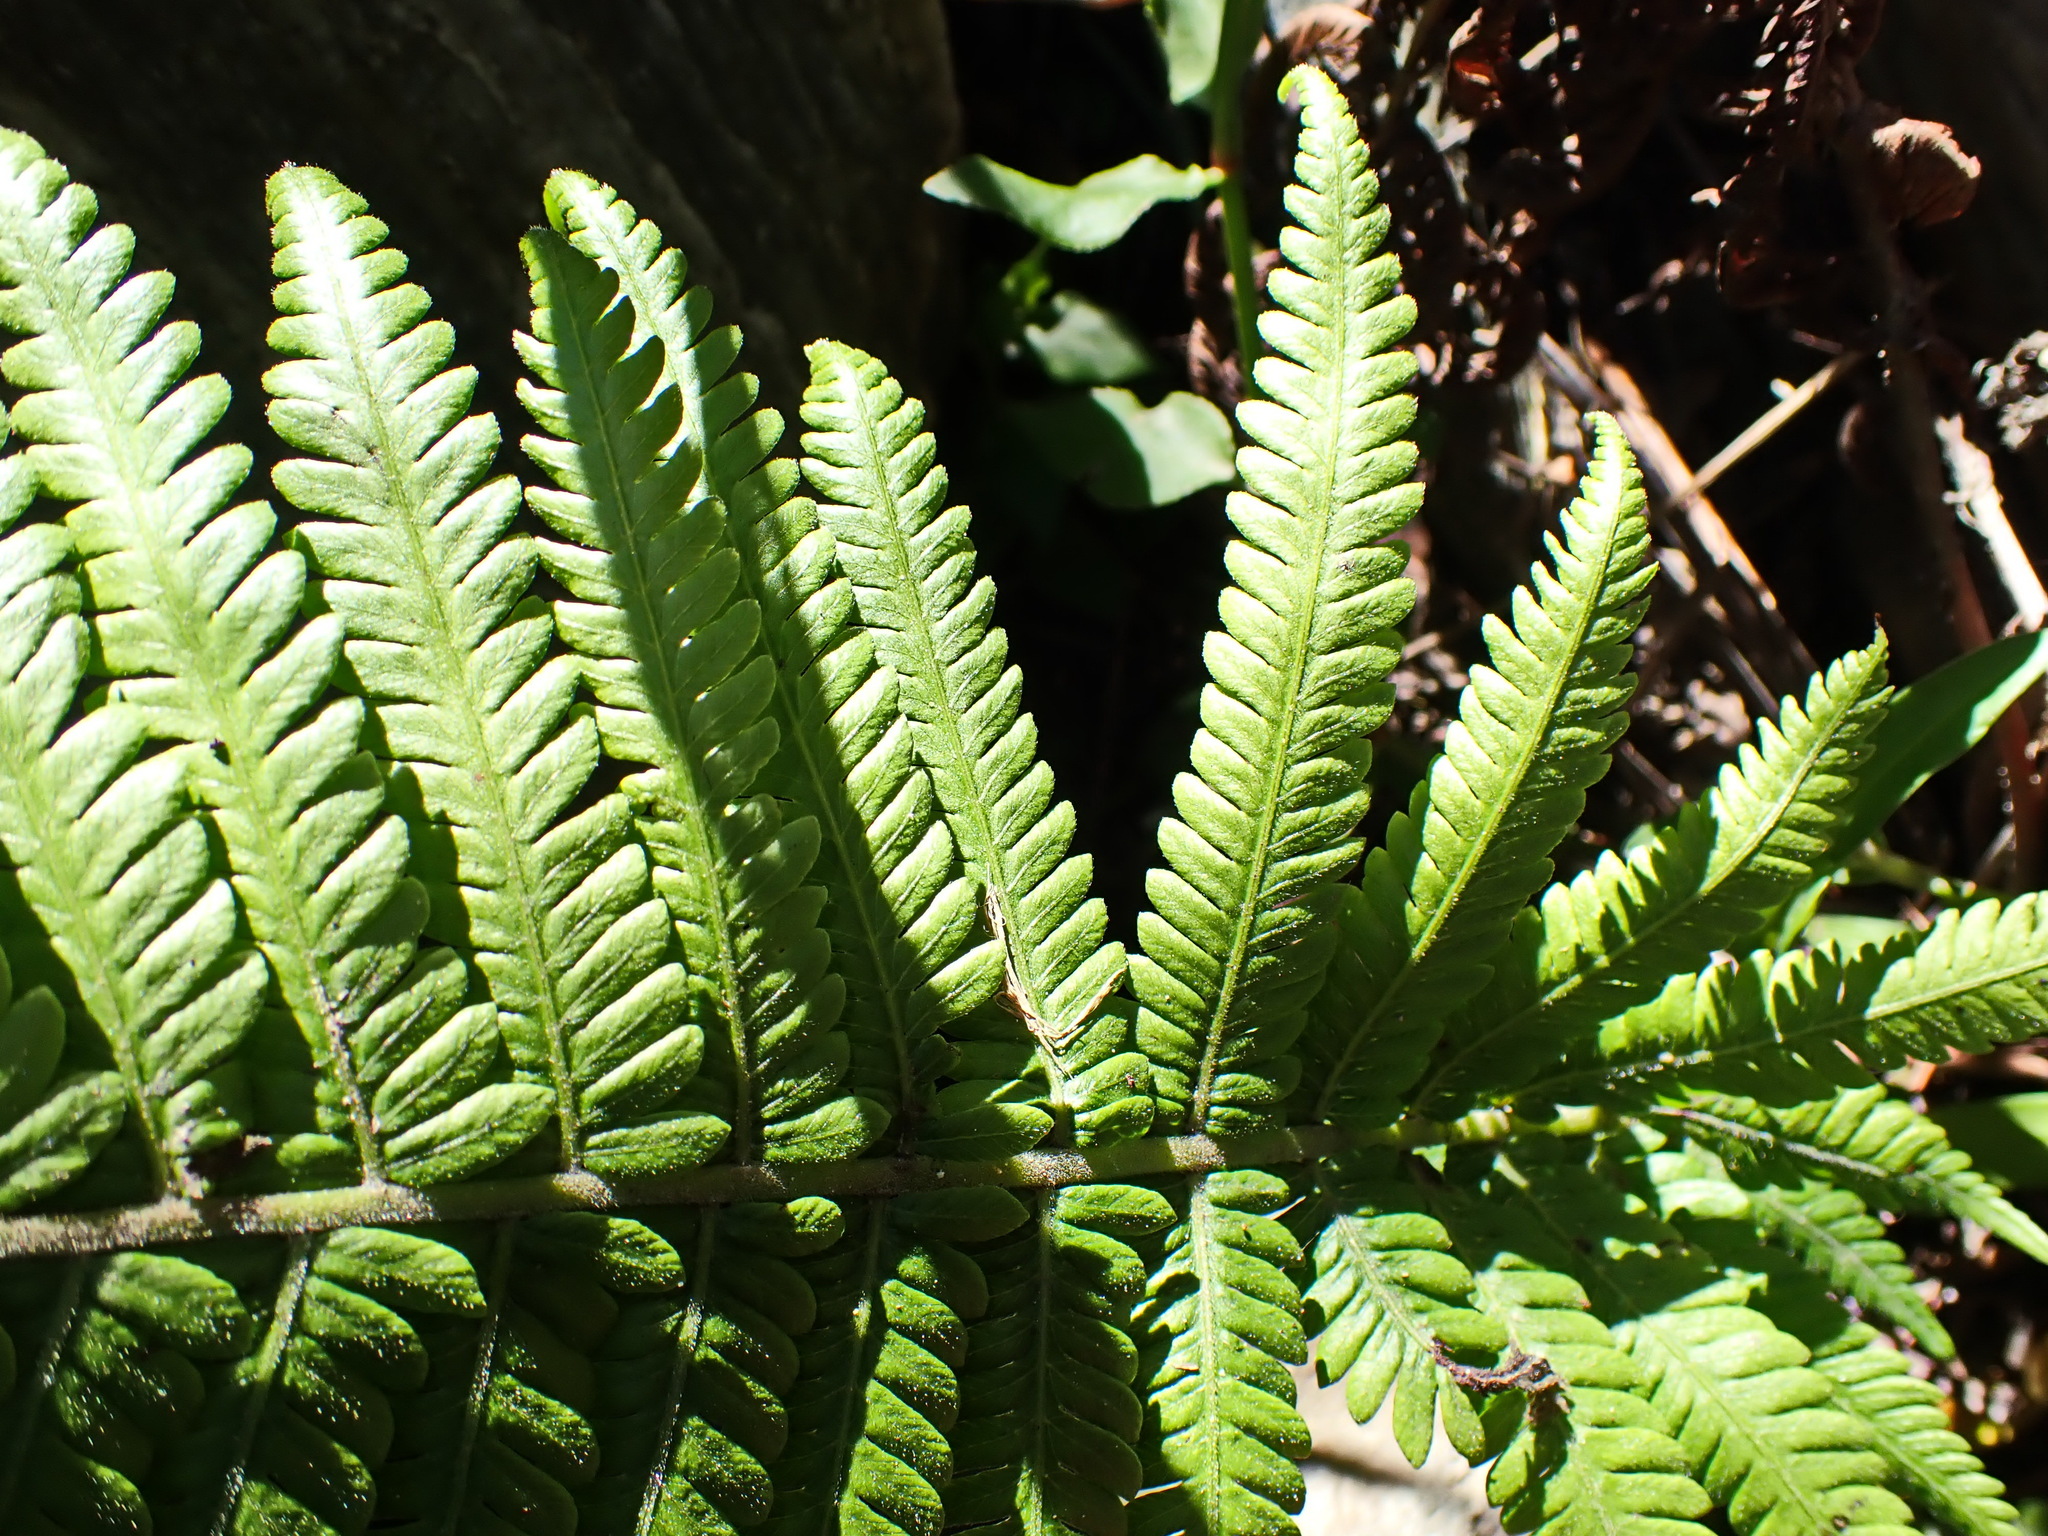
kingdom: Plantae
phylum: Tracheophyta
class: Polypodiopsida
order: Polypodiales
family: Thelypteridaceae
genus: Amauropelta
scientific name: Amauropelta knysnaensis
